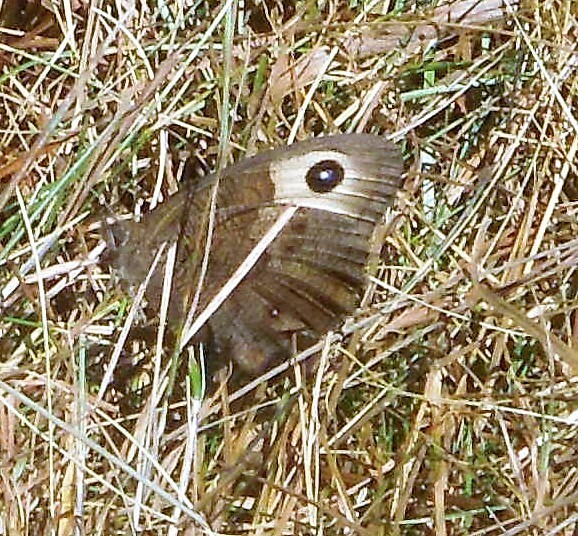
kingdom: Animalia
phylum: Arthropoda
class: Insecta
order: Lepidoptera
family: Nymphalidae
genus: Cercyonis
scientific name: Cercyonis pegala
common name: Common wood-nymph
